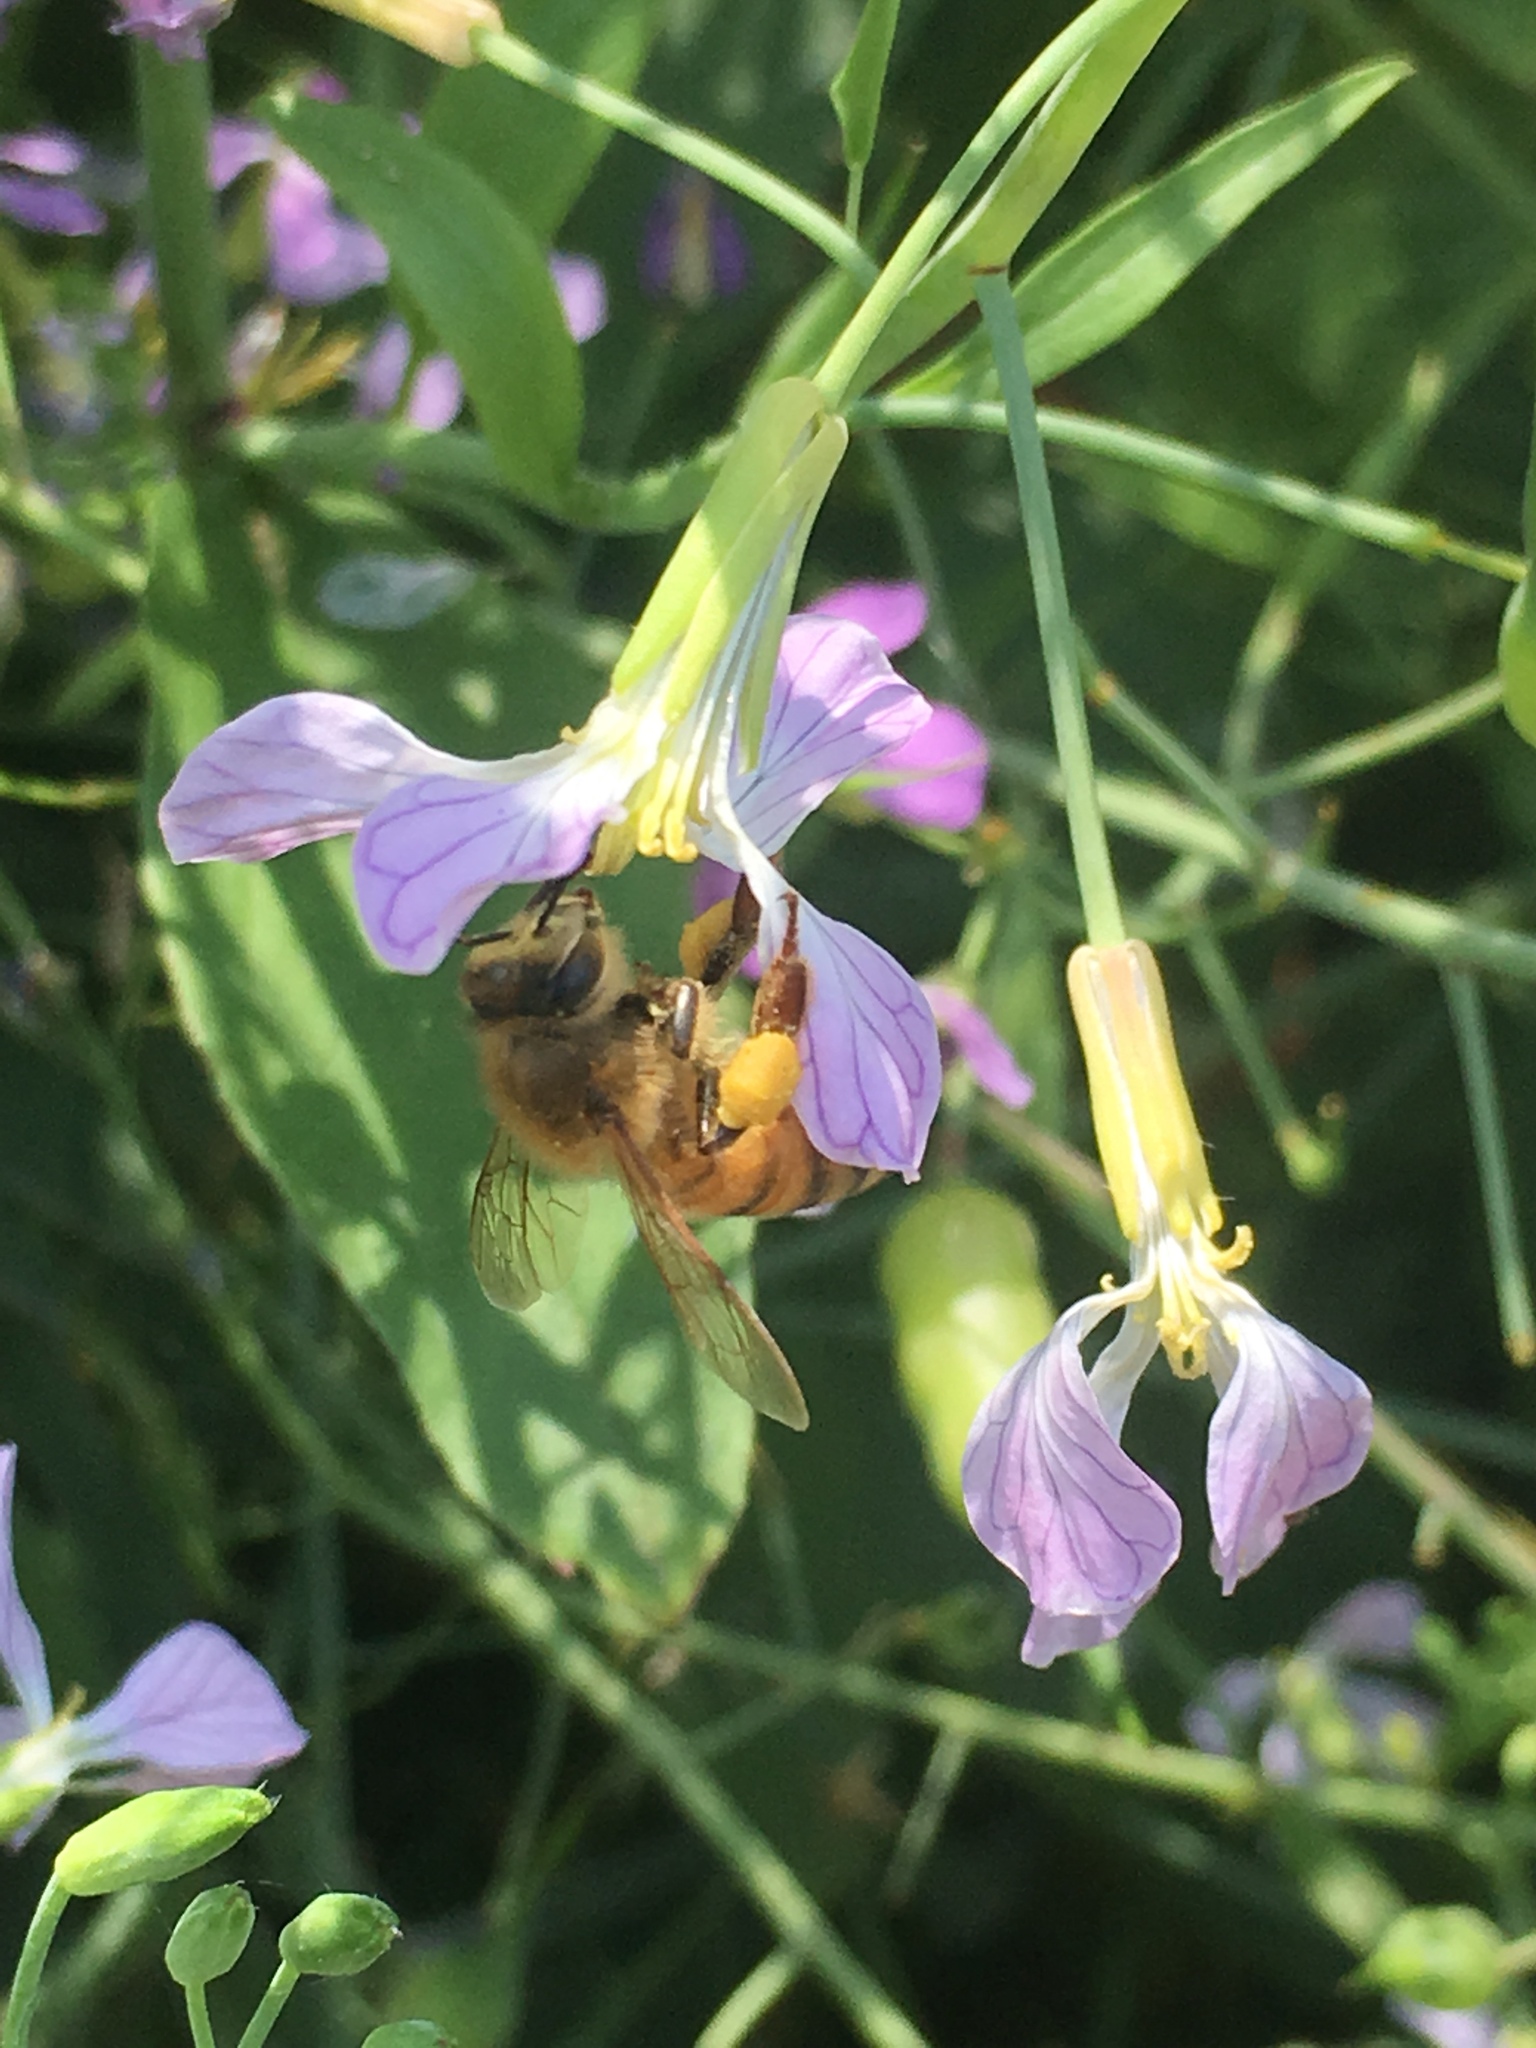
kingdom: Animalia
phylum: Arthropoda
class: Insecta
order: Hymenoptera
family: Apidae
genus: Apis
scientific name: Apis mellifera
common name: Honey bee
